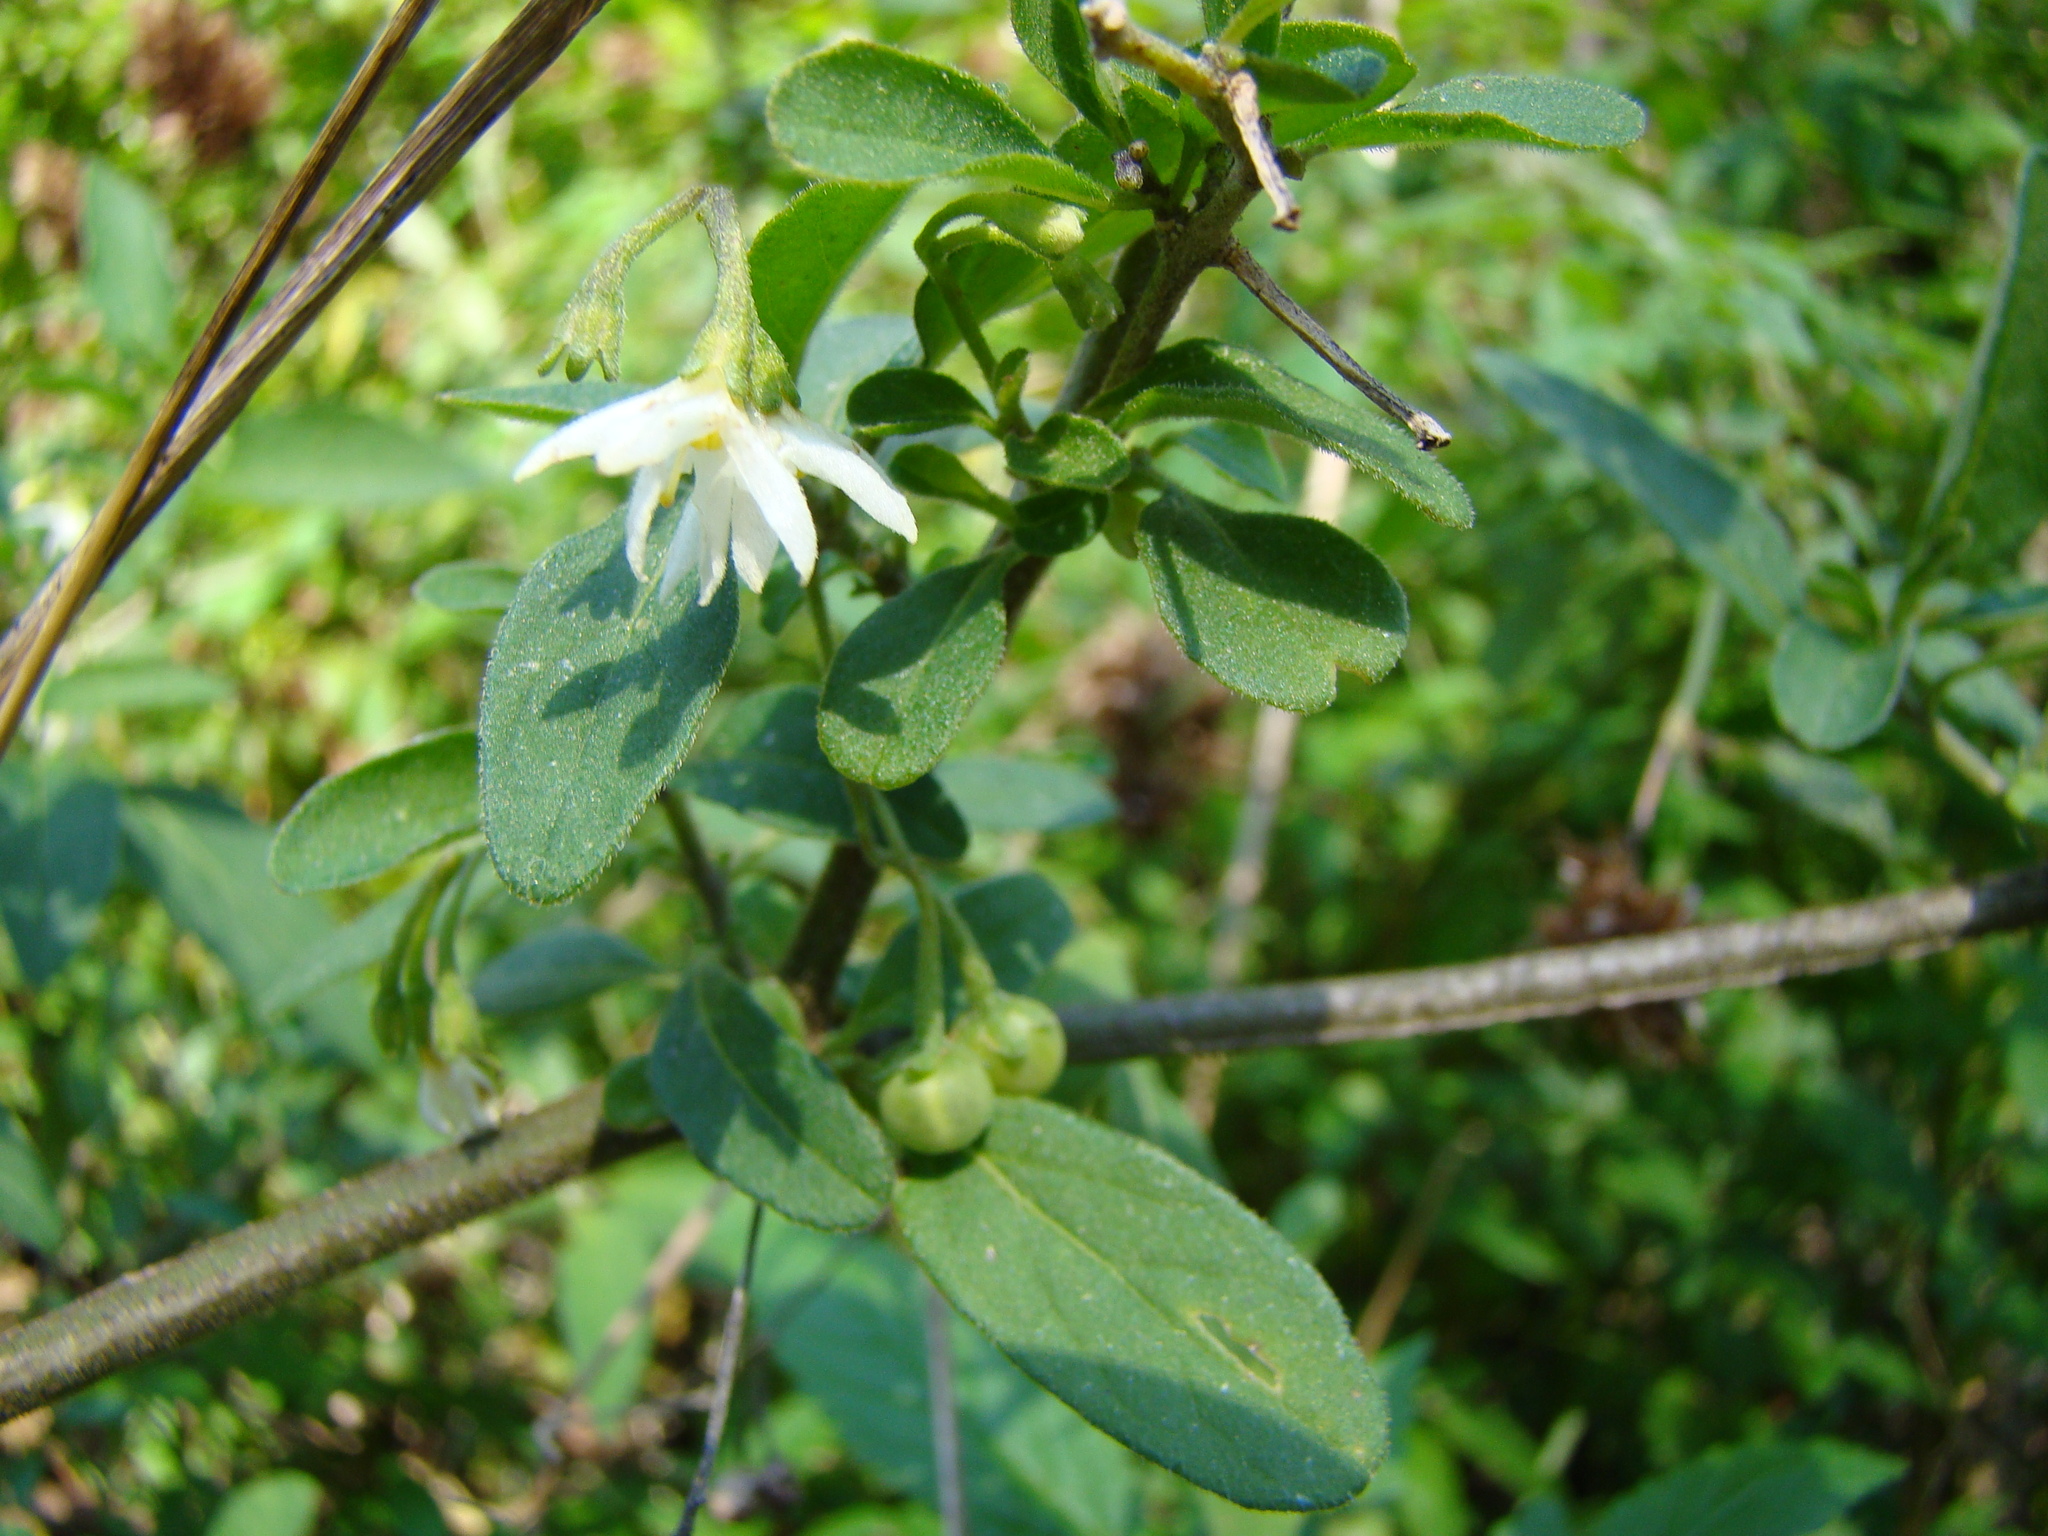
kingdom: Plantae
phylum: Tracheophyta
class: Magnoliopsida
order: Solanales
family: Solanaceae
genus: Solanum
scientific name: Solanum chenopodioides
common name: Tall nightshade
